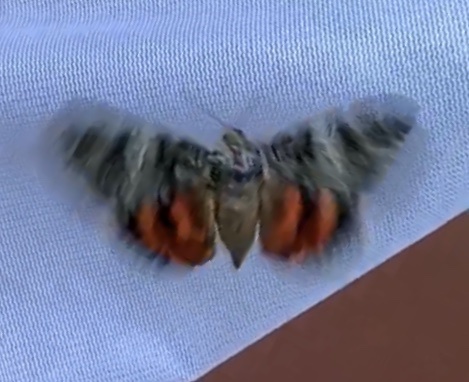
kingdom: Animalia
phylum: Arthropoda
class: Insecta
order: Lepidoptera
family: Erebidae
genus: Catocala
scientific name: Catocala ilia
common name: Ilia underwing
